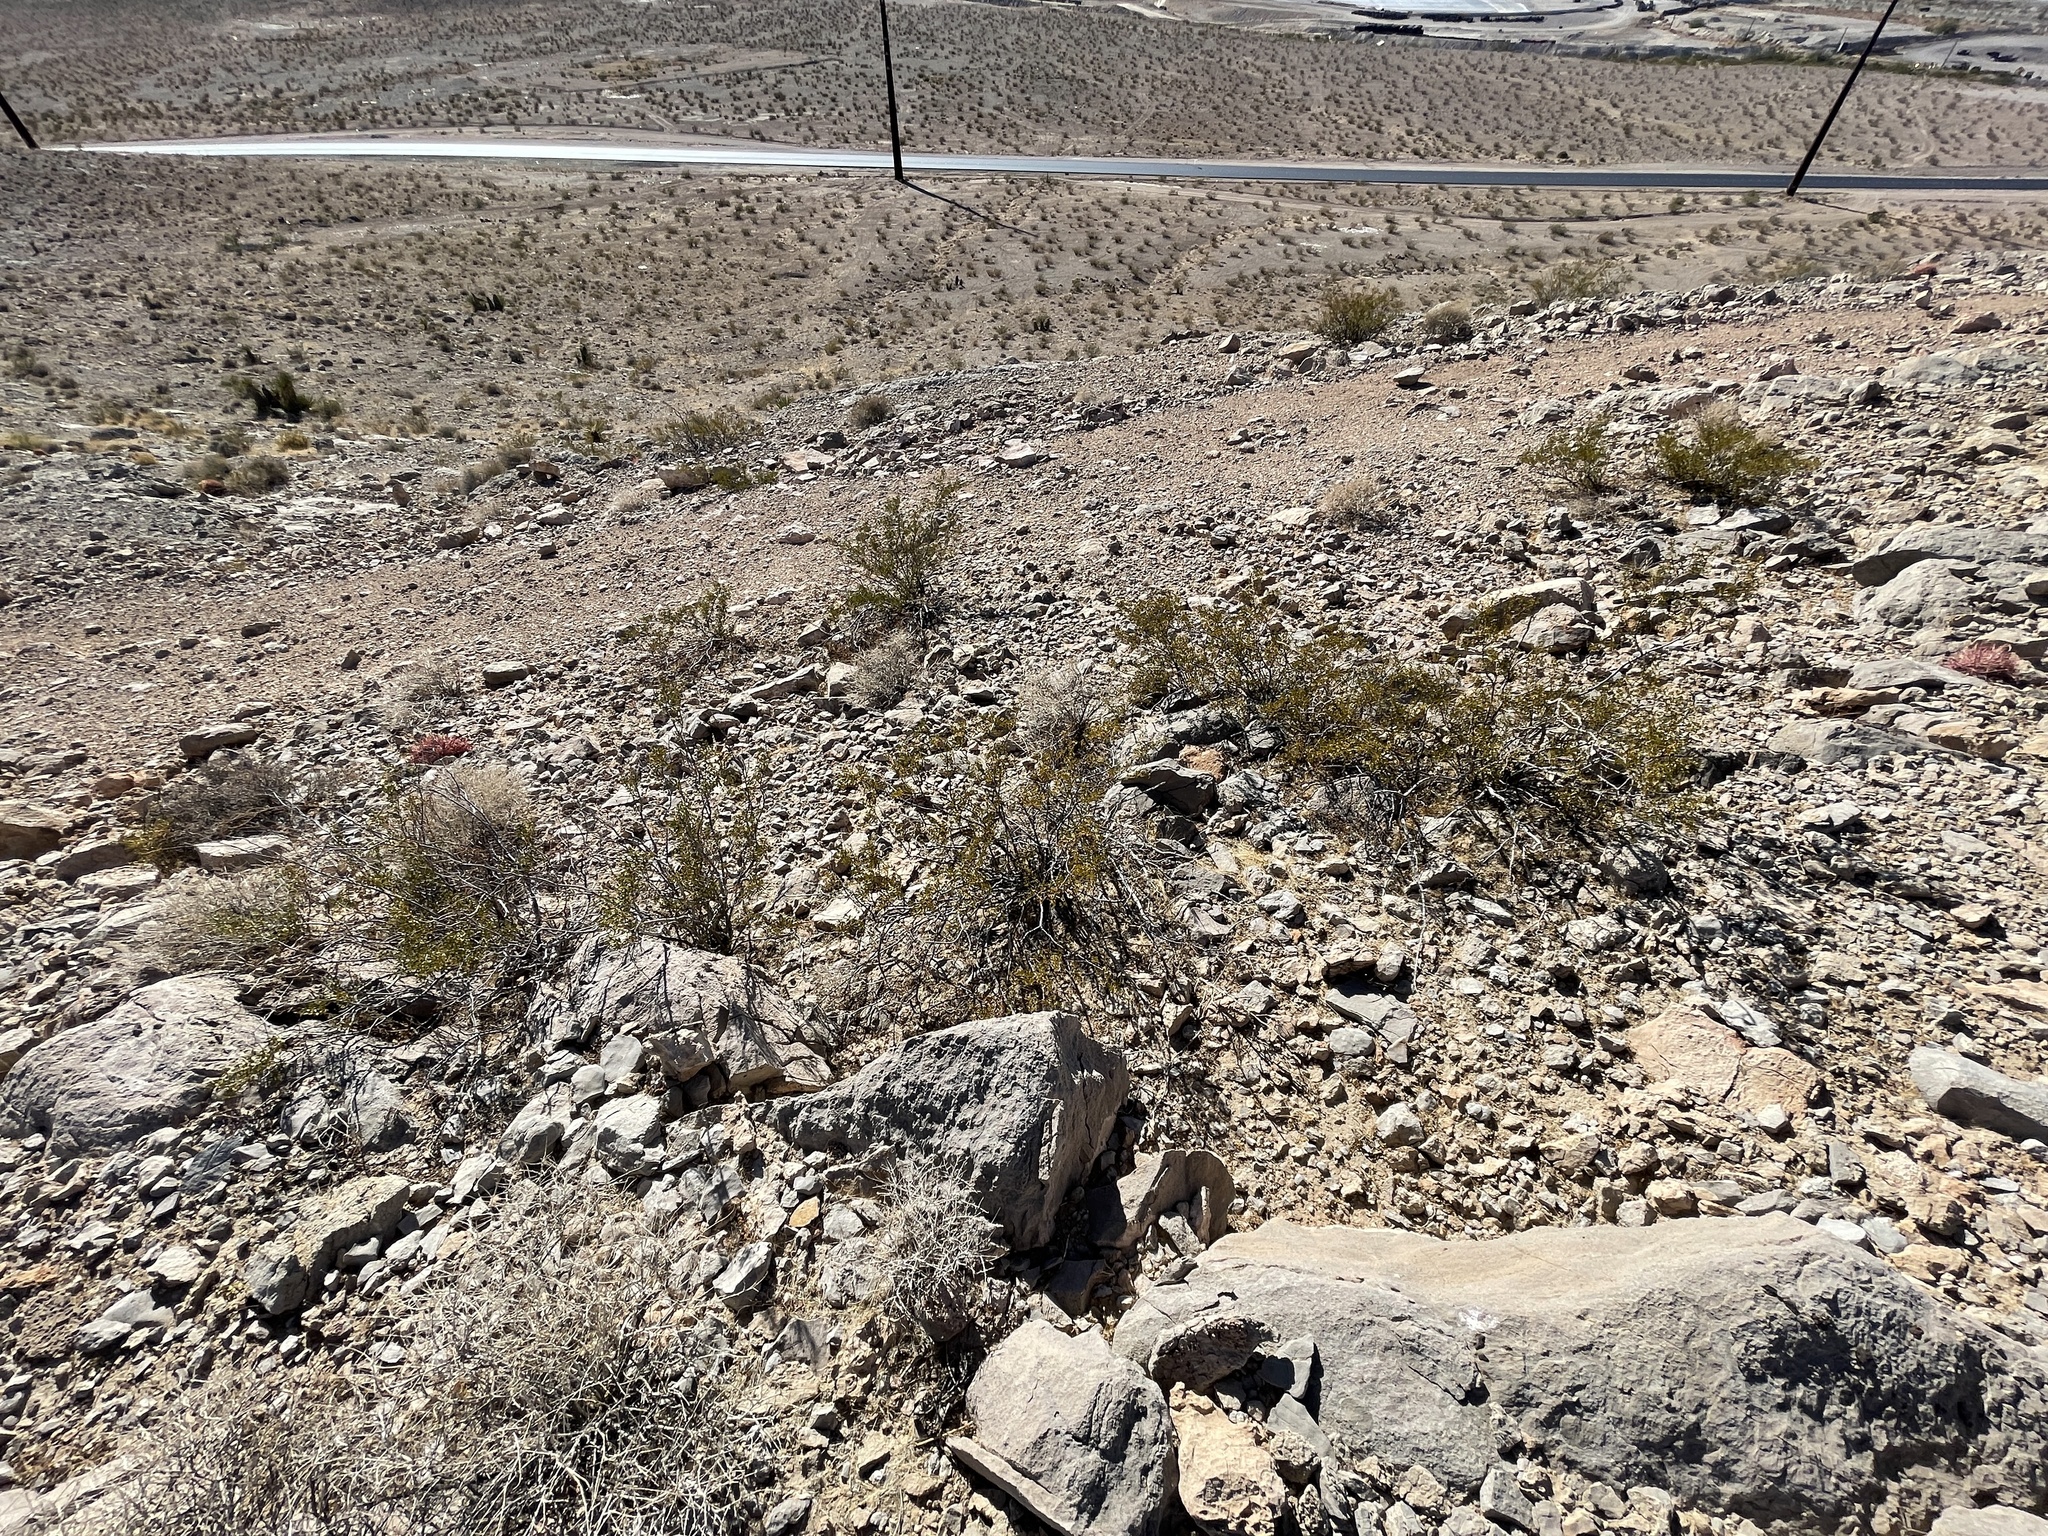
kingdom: Plantae
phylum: Tracheophyta
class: Magnoliopsida
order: Zygophyllales
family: Zygophyllaceae
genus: Larrea
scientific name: Larrea tridentata
